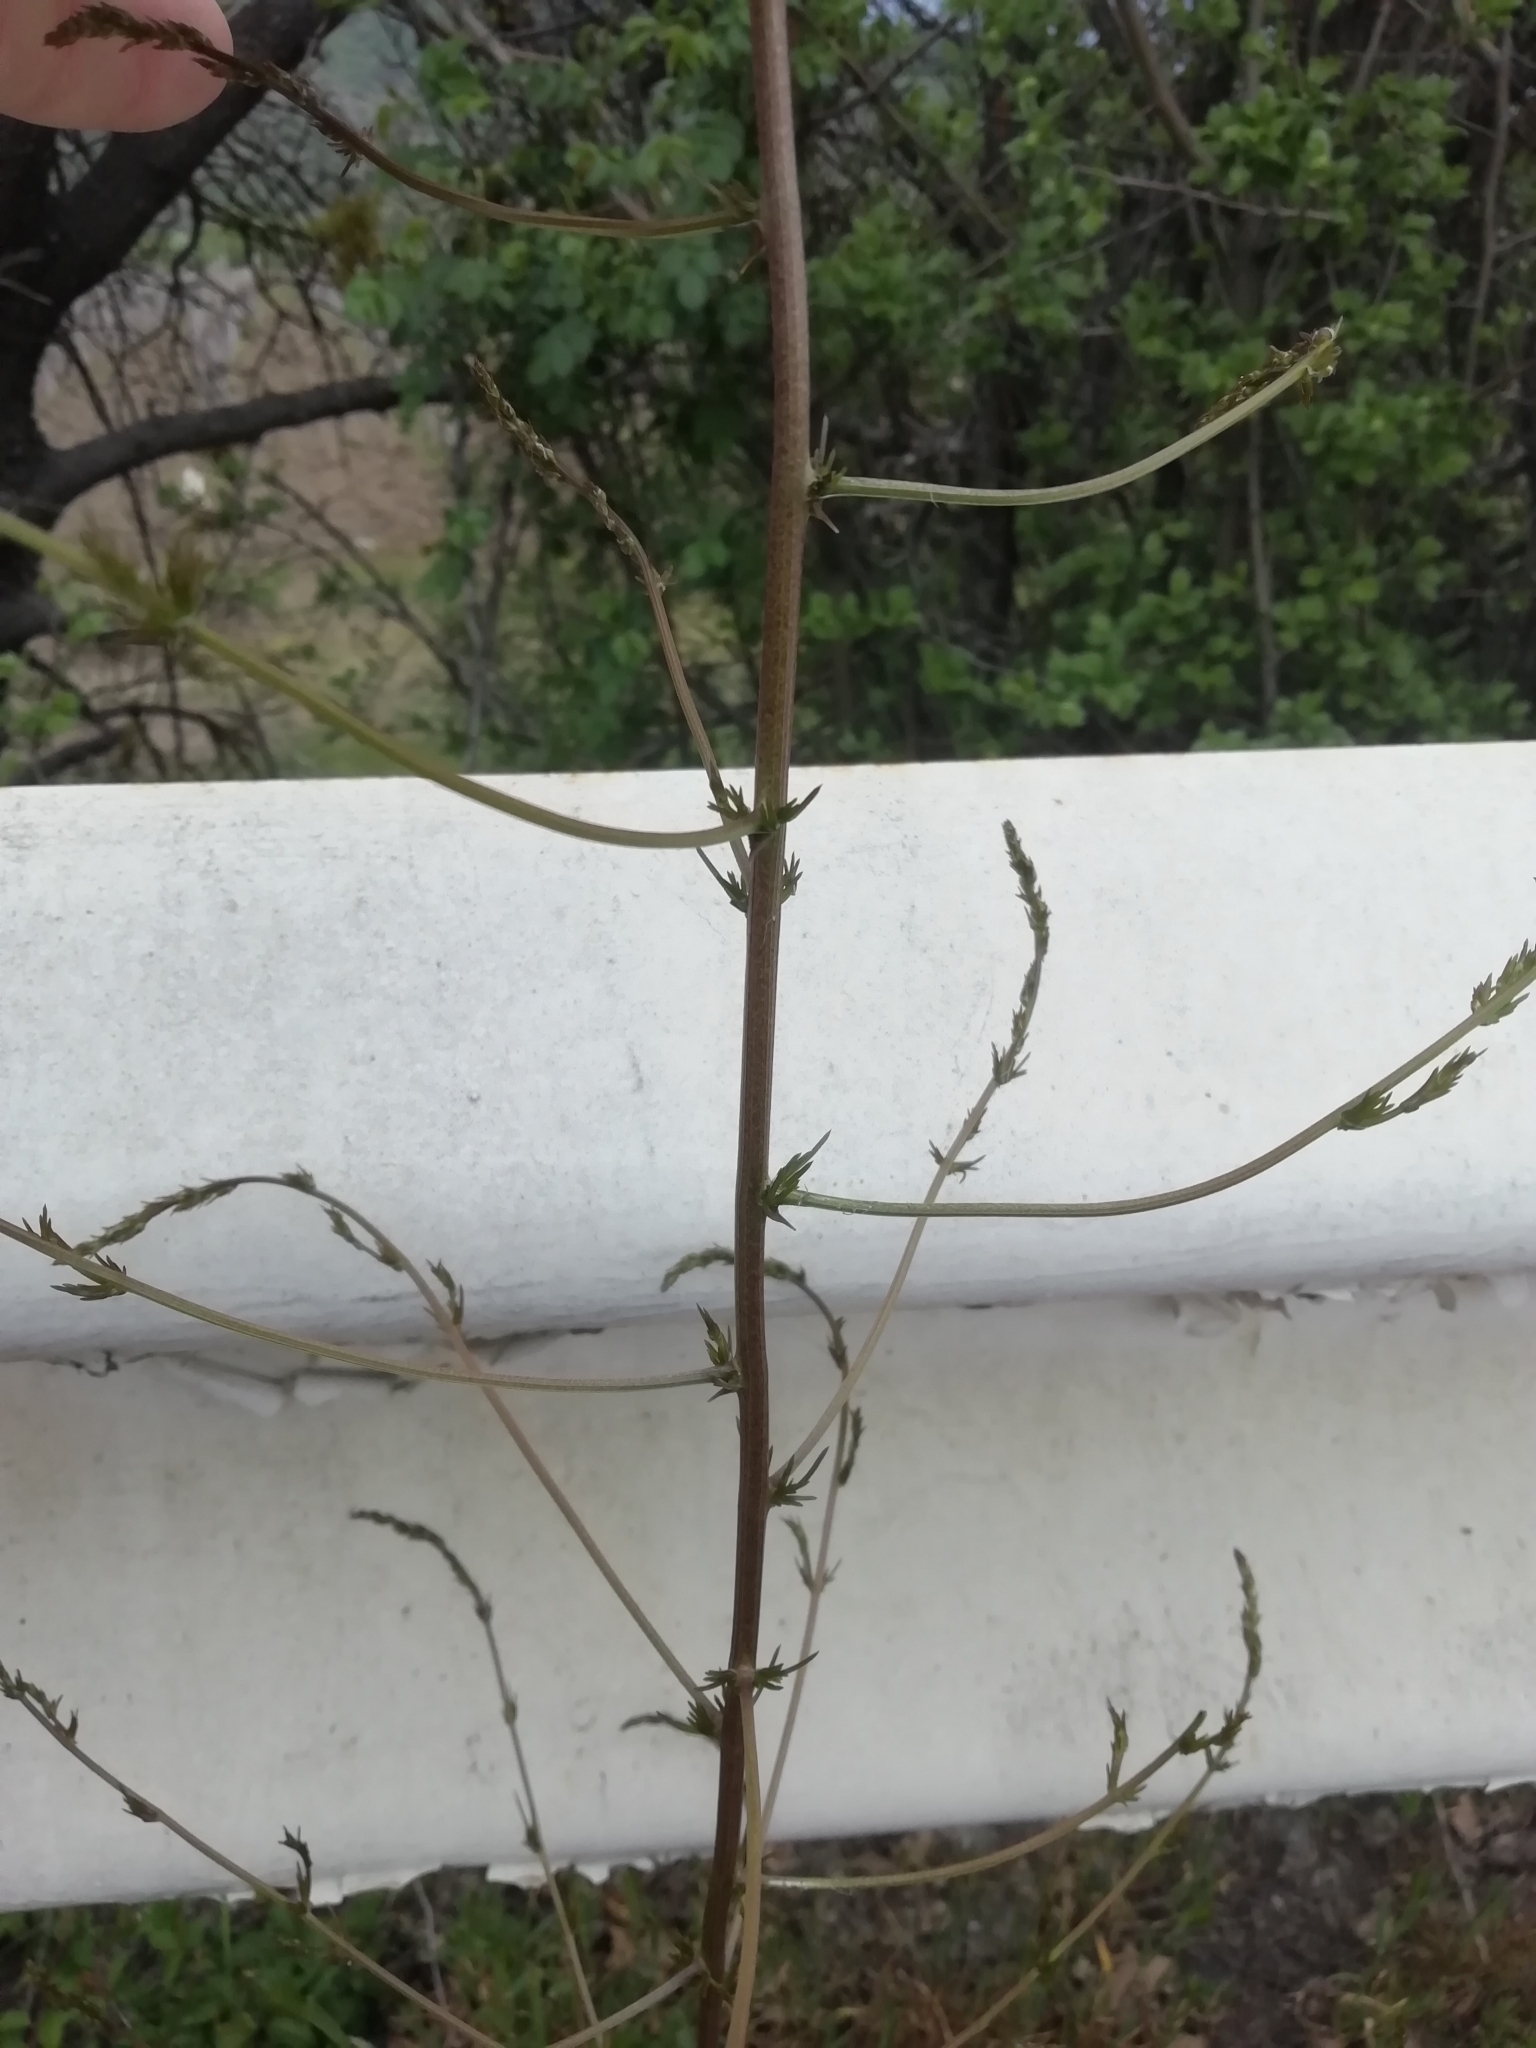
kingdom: Plantae
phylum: Tracheophyta
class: Liliopsida
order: Asparagales
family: Asparagaceae
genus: Asparagus
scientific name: Asparagus verticillatus
